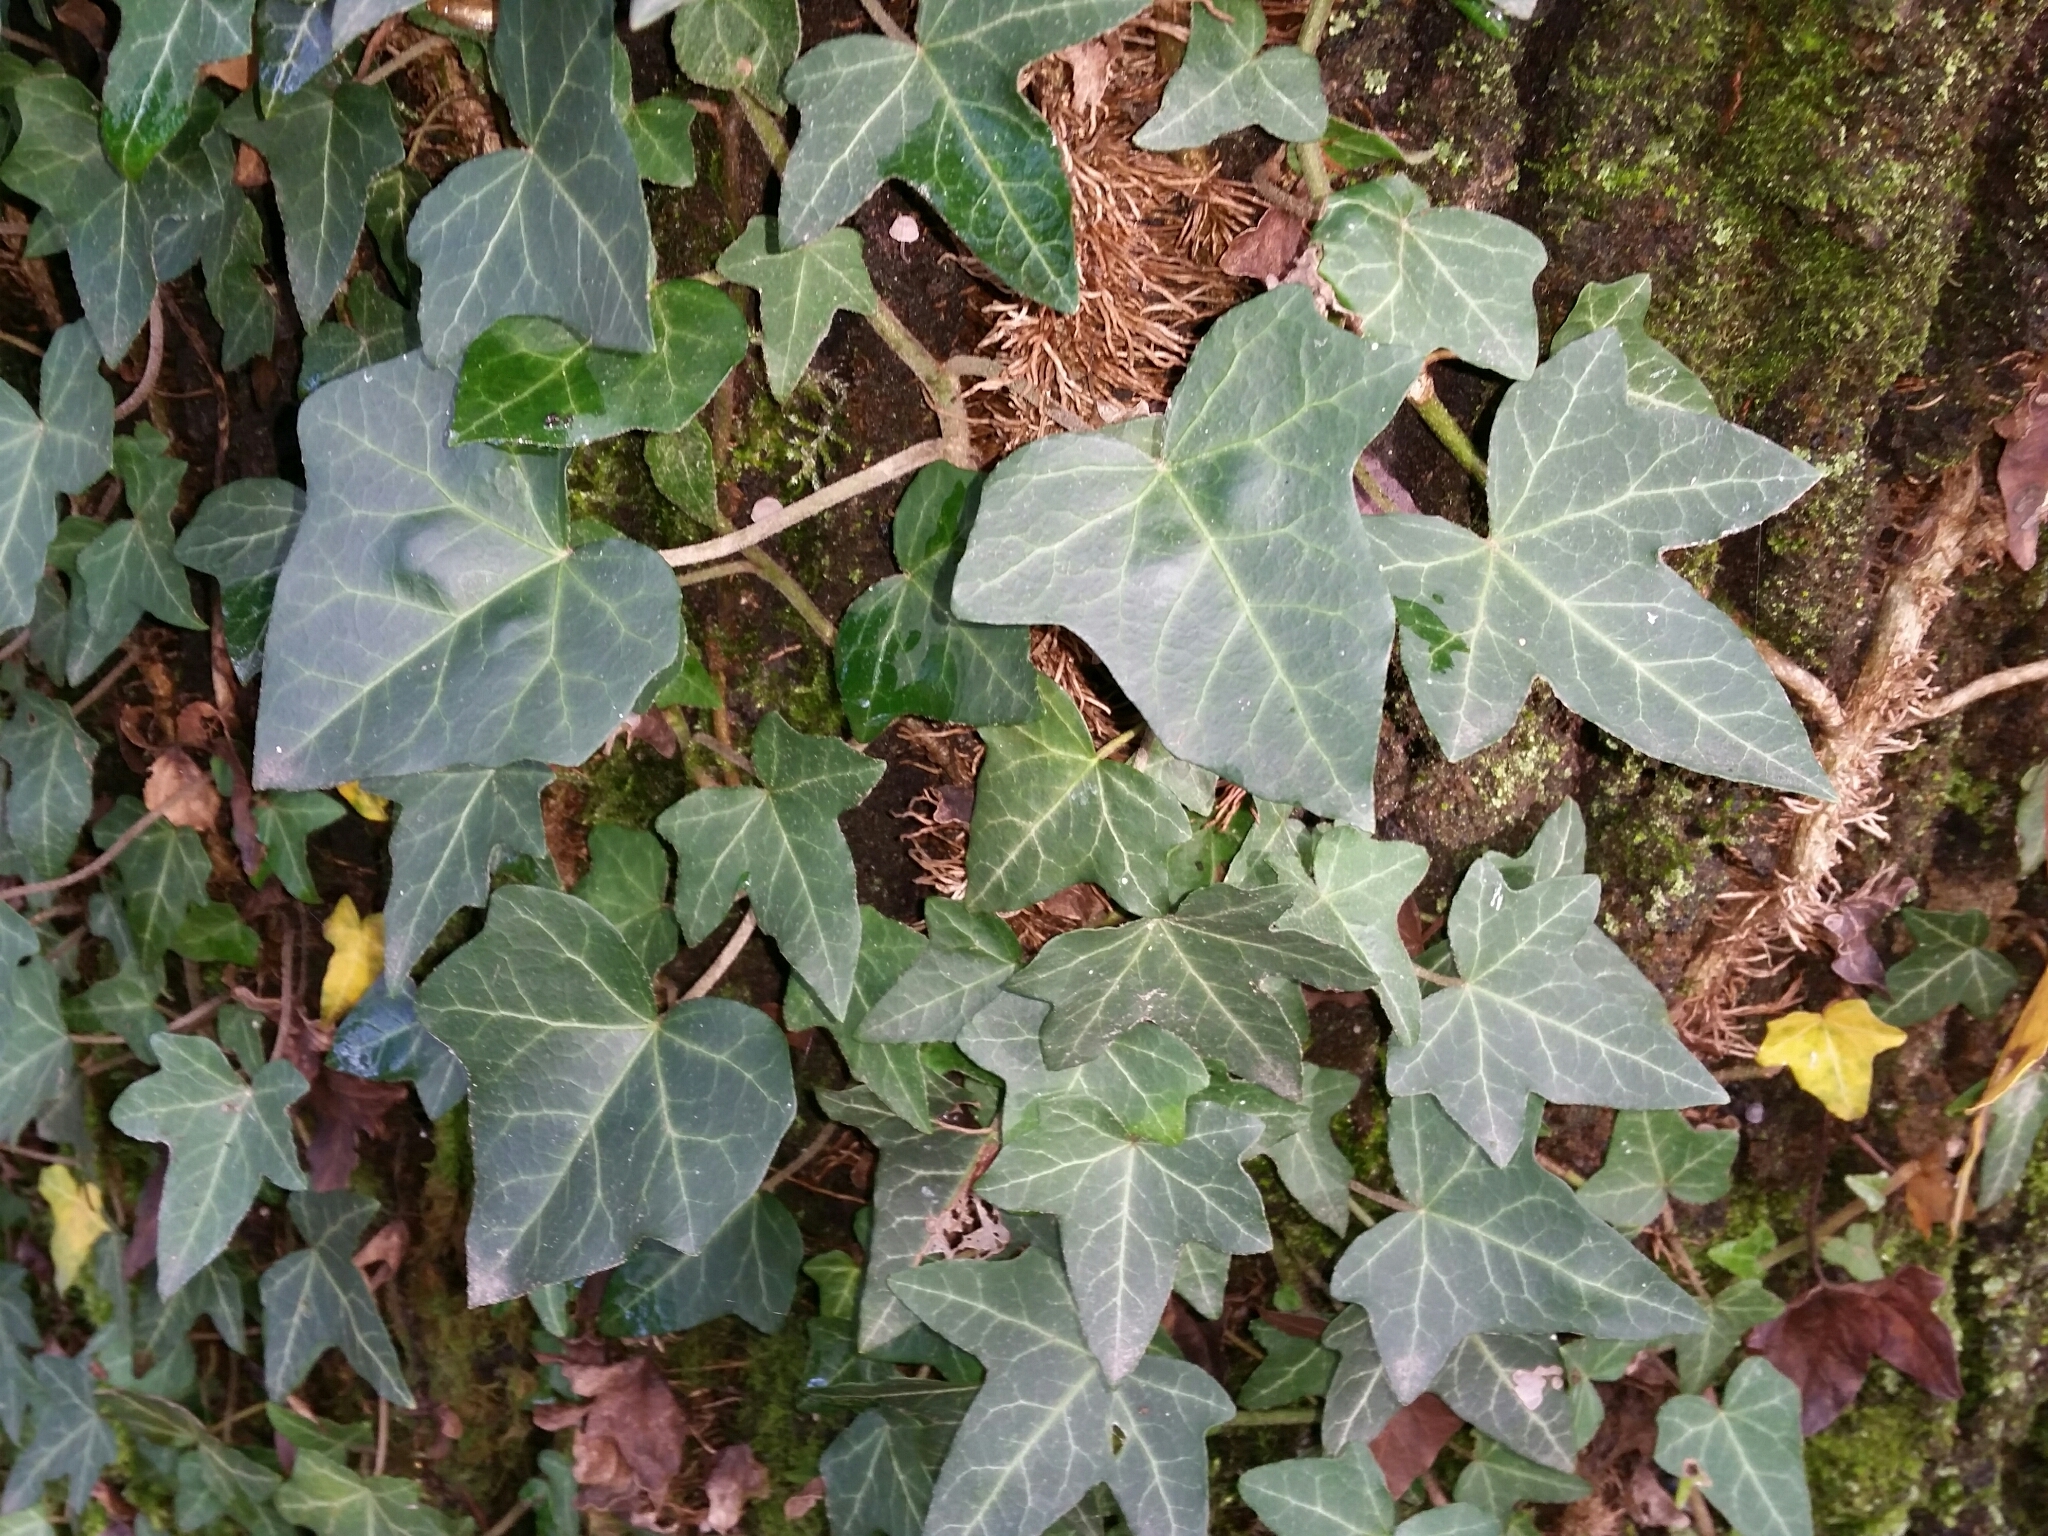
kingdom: Plantae
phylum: Tracheophyta
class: Magnoliopsida
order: Apiales
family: Araliaceae
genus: Hedera
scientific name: Hedera helix
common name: Ivy
